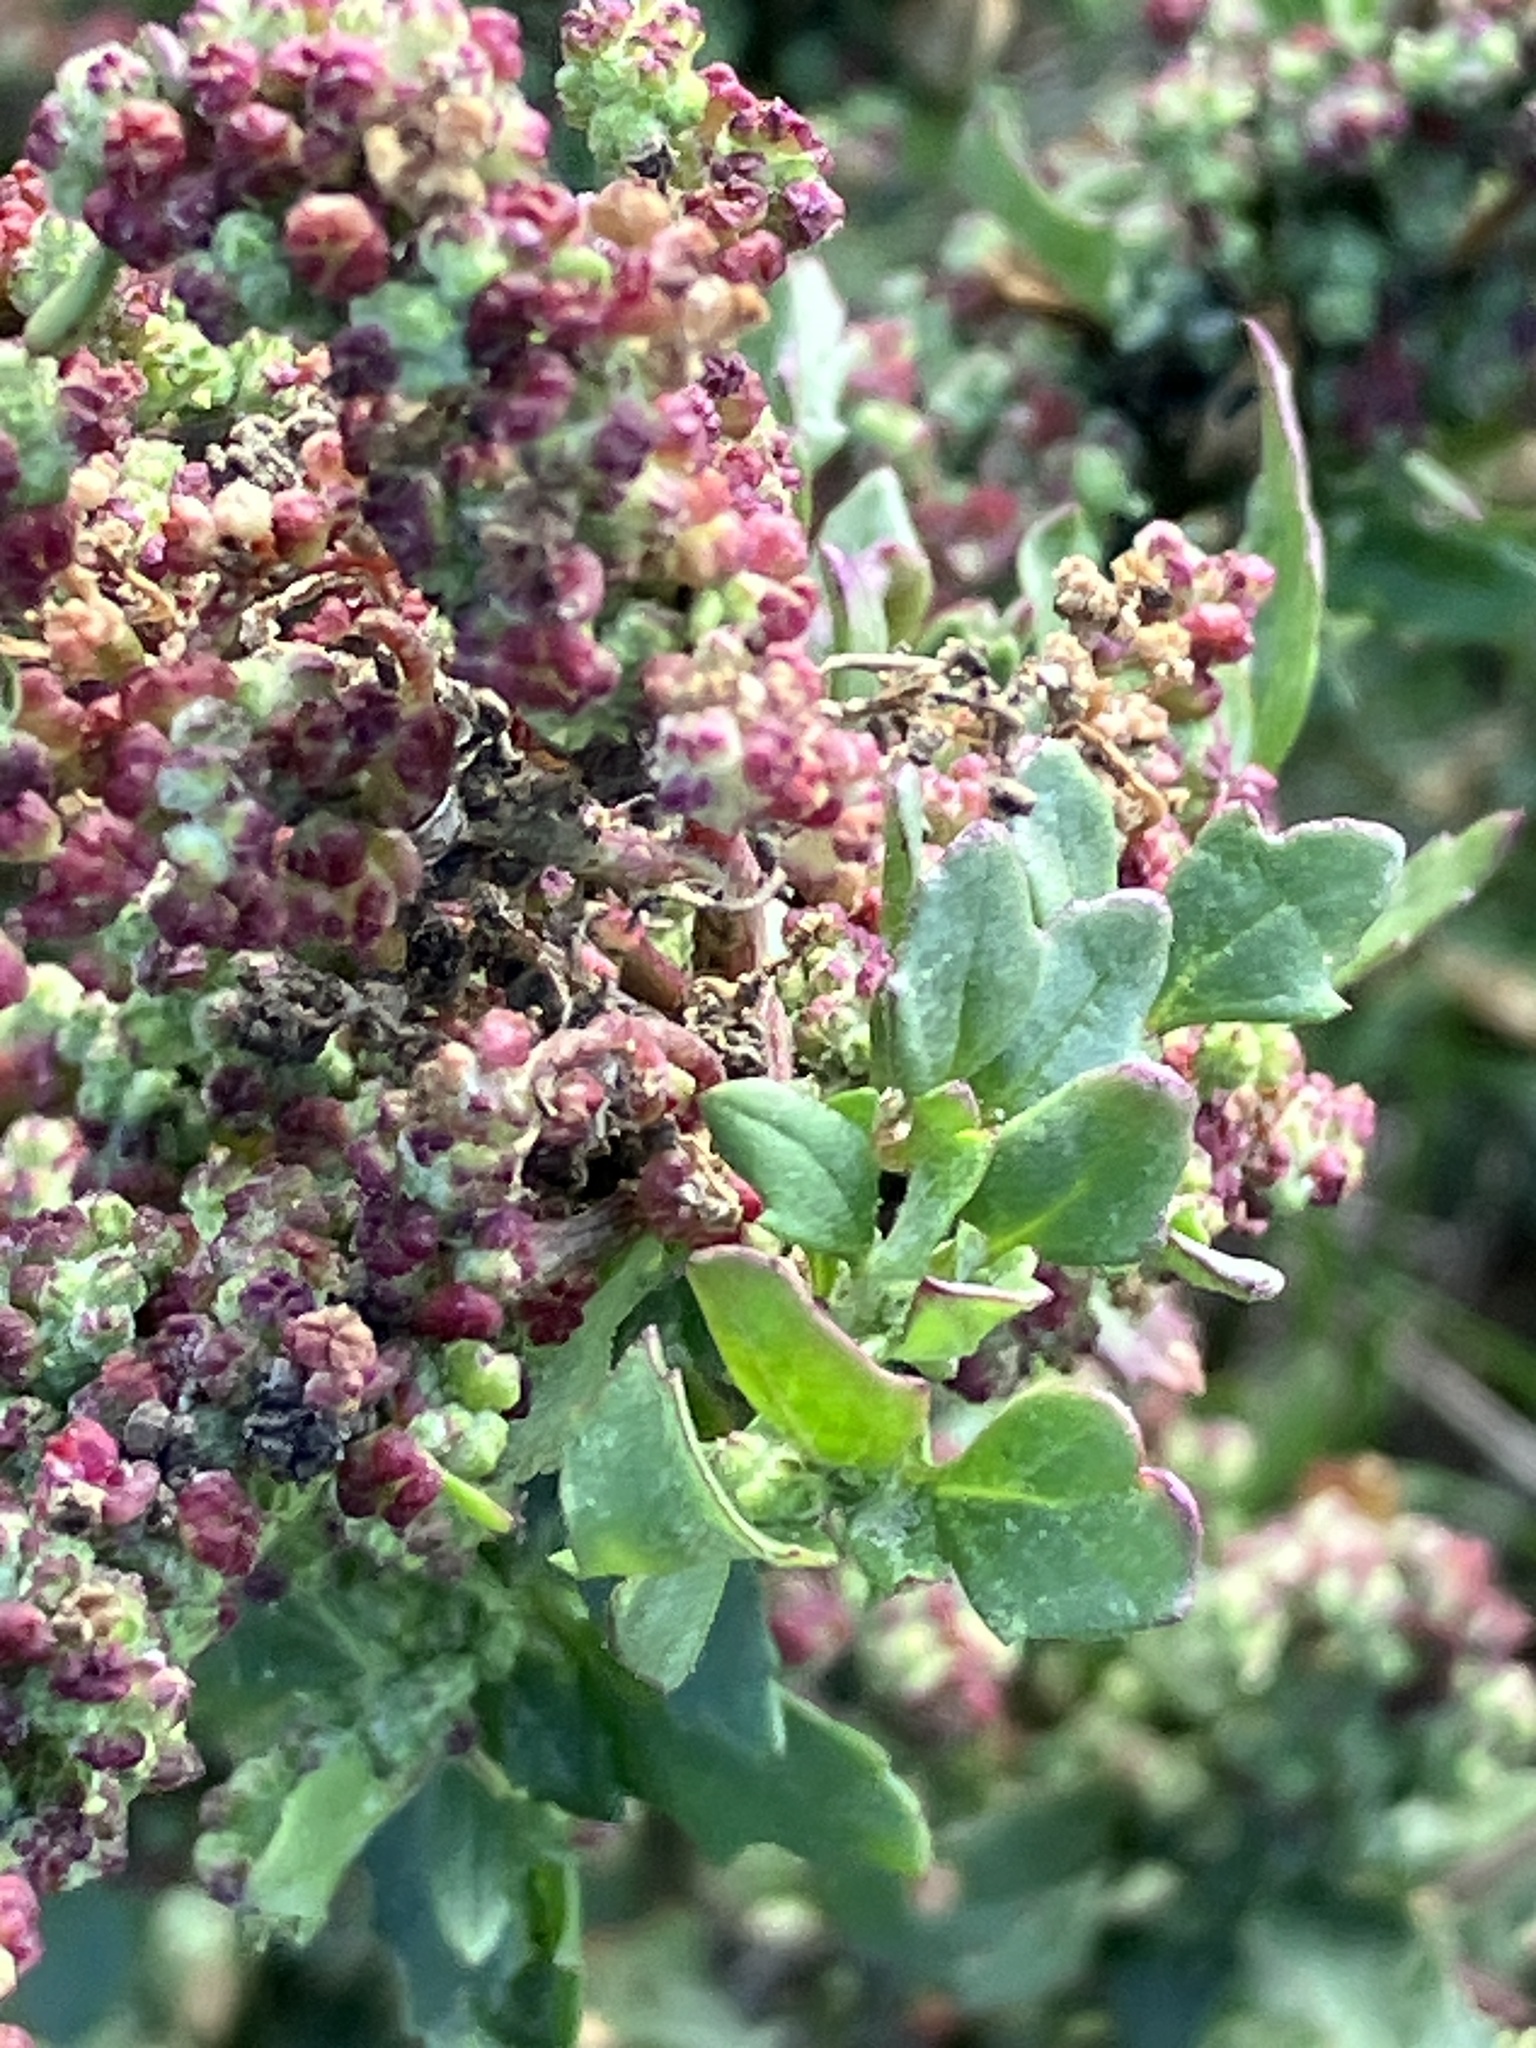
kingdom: Plantae
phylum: Tracheophyta
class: Magnoliopsida
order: Caryophyllales
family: Amaranthaceae
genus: Chenopodiastrum
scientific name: Chenopodiastrum murale
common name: Sowbane
